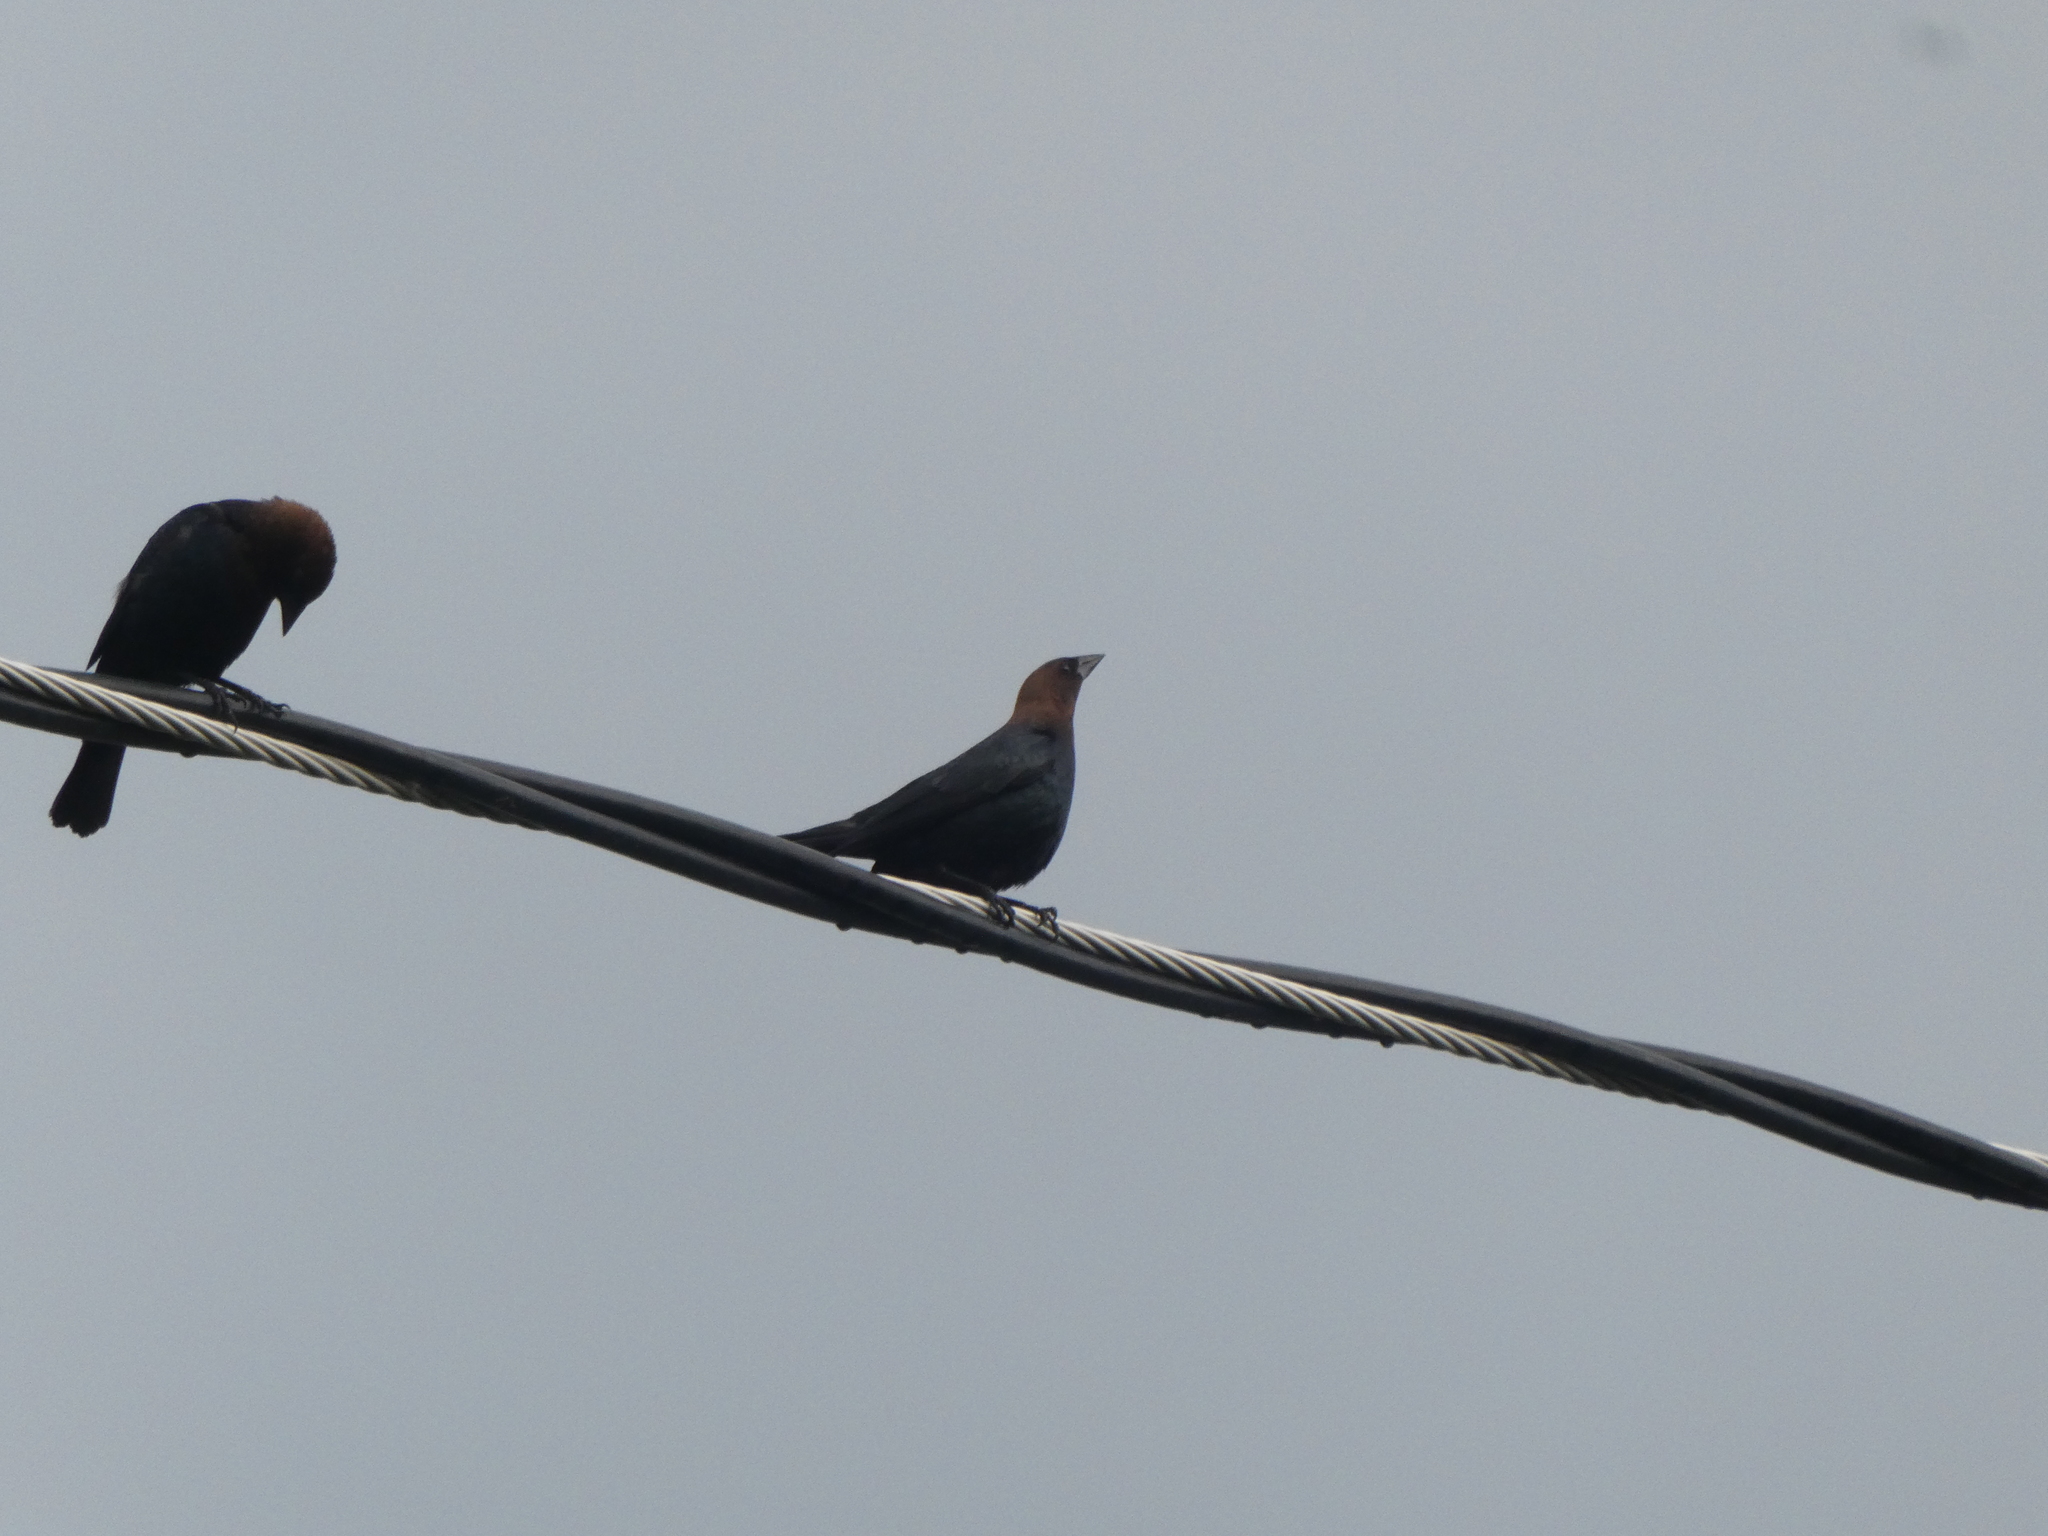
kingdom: Animalia
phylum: Chordata
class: Aves
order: Passeriformes
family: Icteridae
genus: Molothrus
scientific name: Molothrus ater
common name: Brown-headed cowbird
